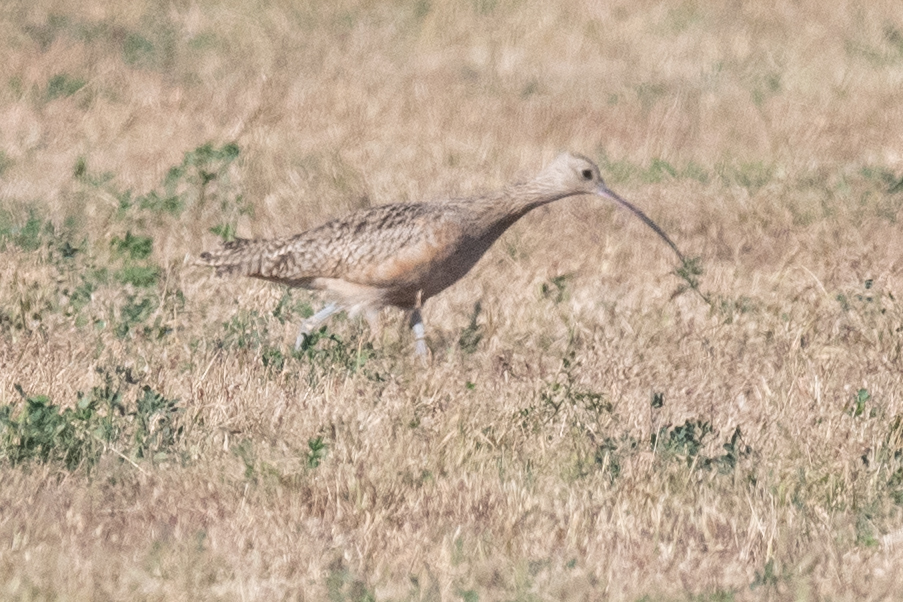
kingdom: Animalia
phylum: Chordata
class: Aves
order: Charadriiformes
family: Scolopacidae
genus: Numenius
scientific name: Numenius americanus
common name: Long-billed curlew
